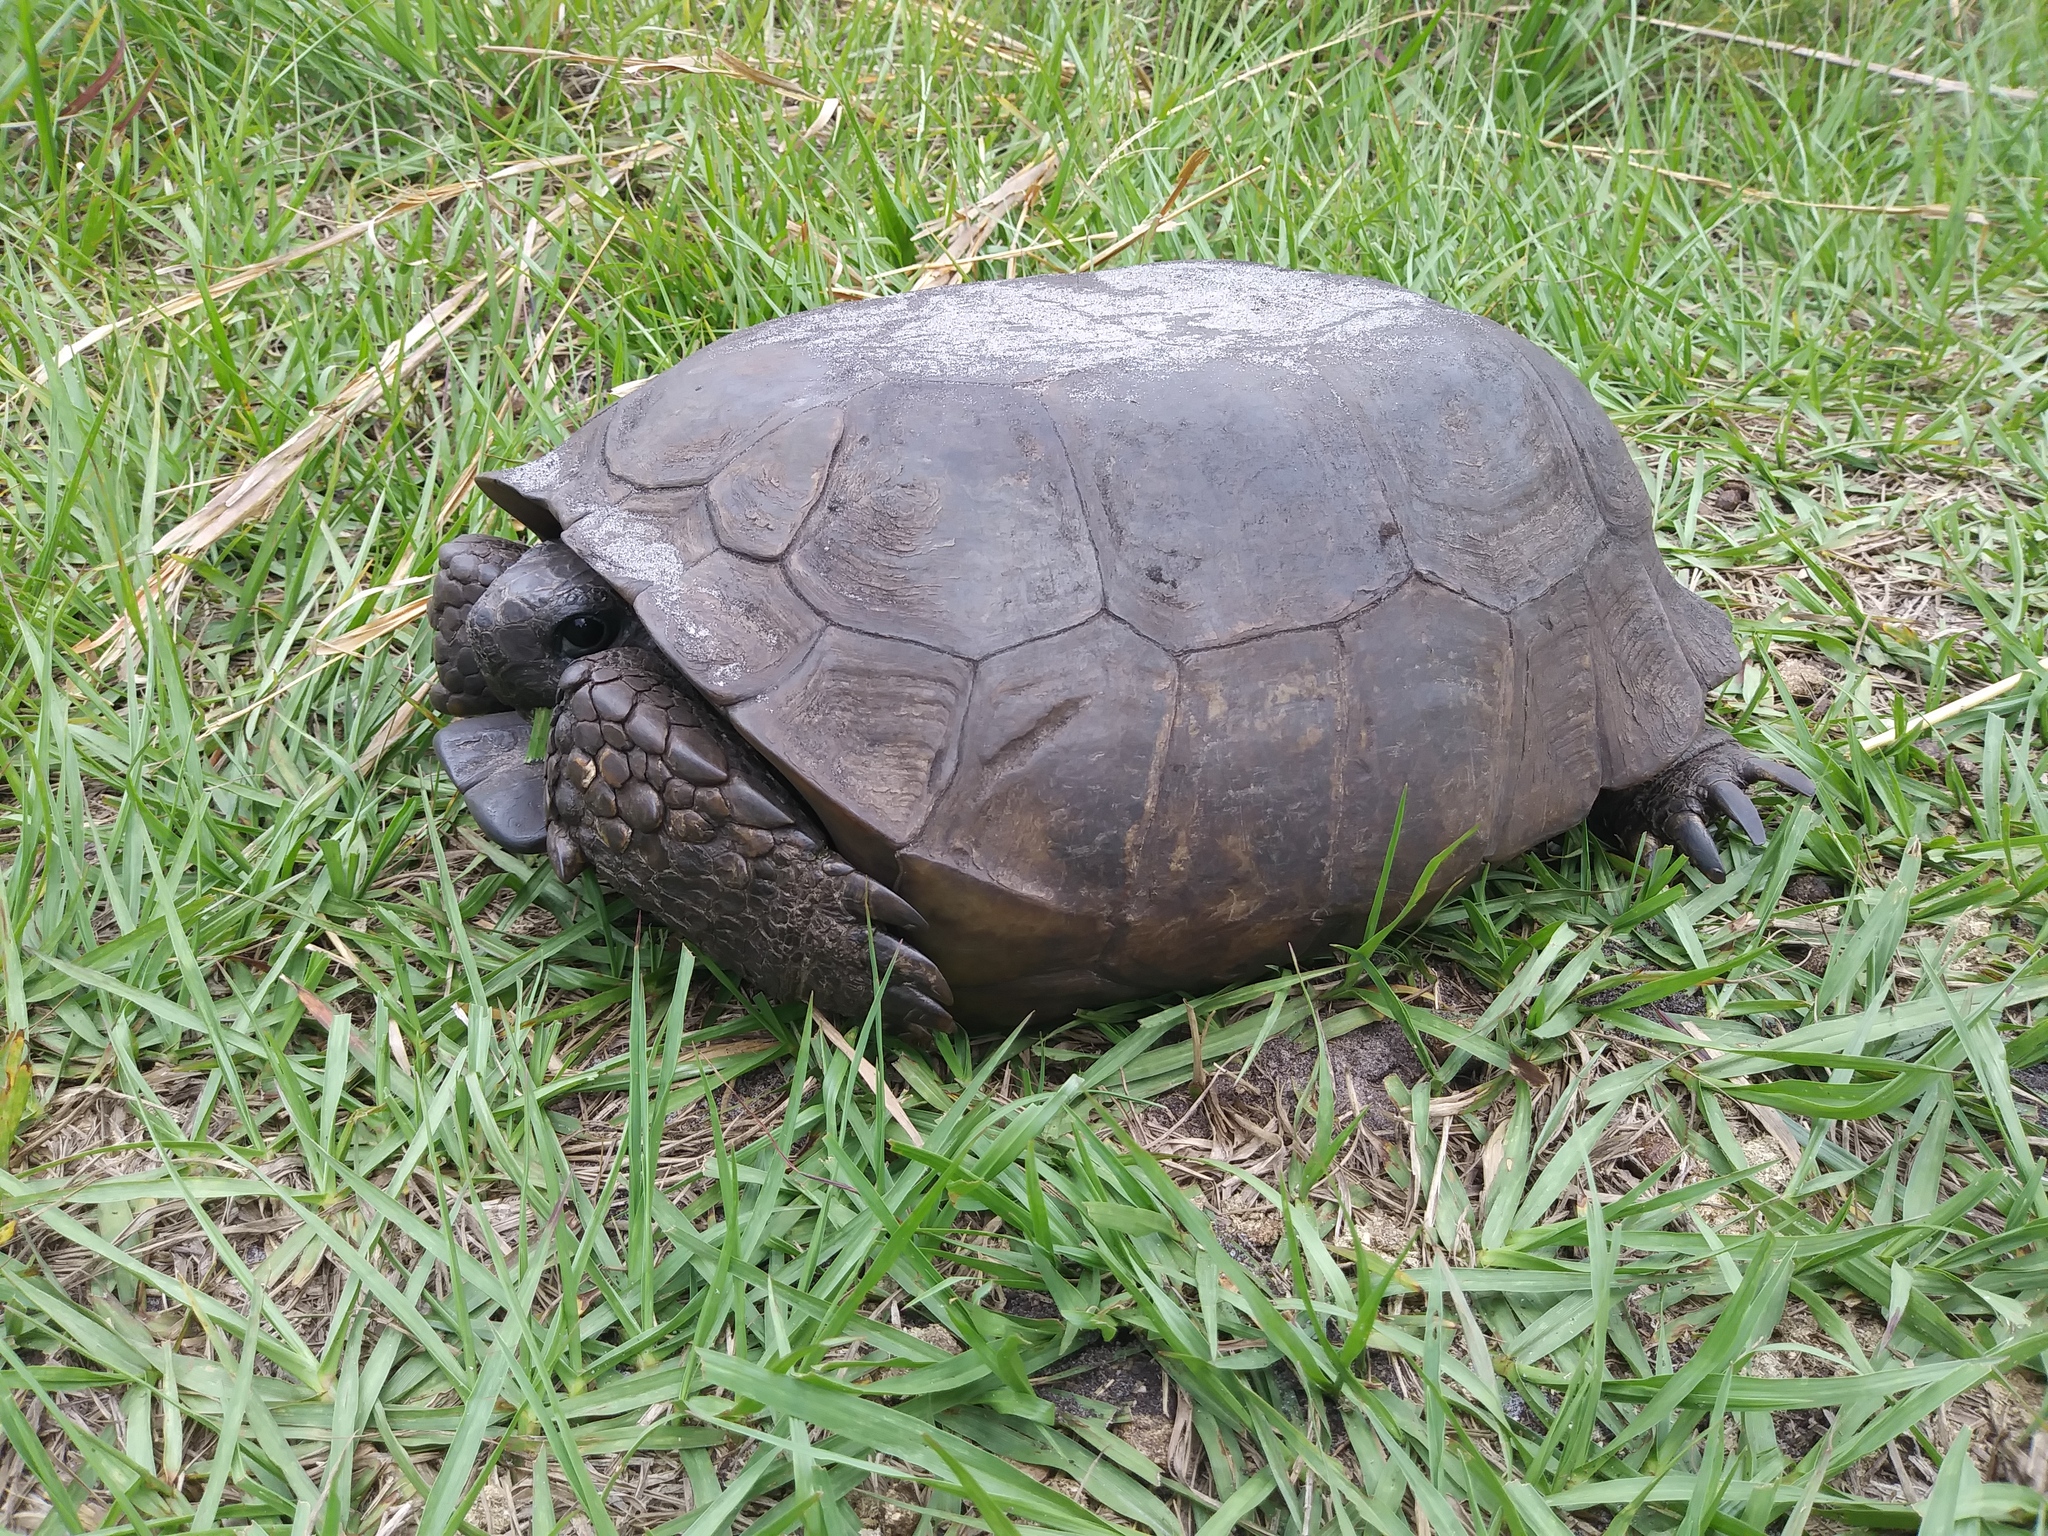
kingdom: Animalia
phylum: Chordata
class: Testudines
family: Testudinidae
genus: Gopherus
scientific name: Gopherus polyphemus
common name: Florida gopher tortoise
